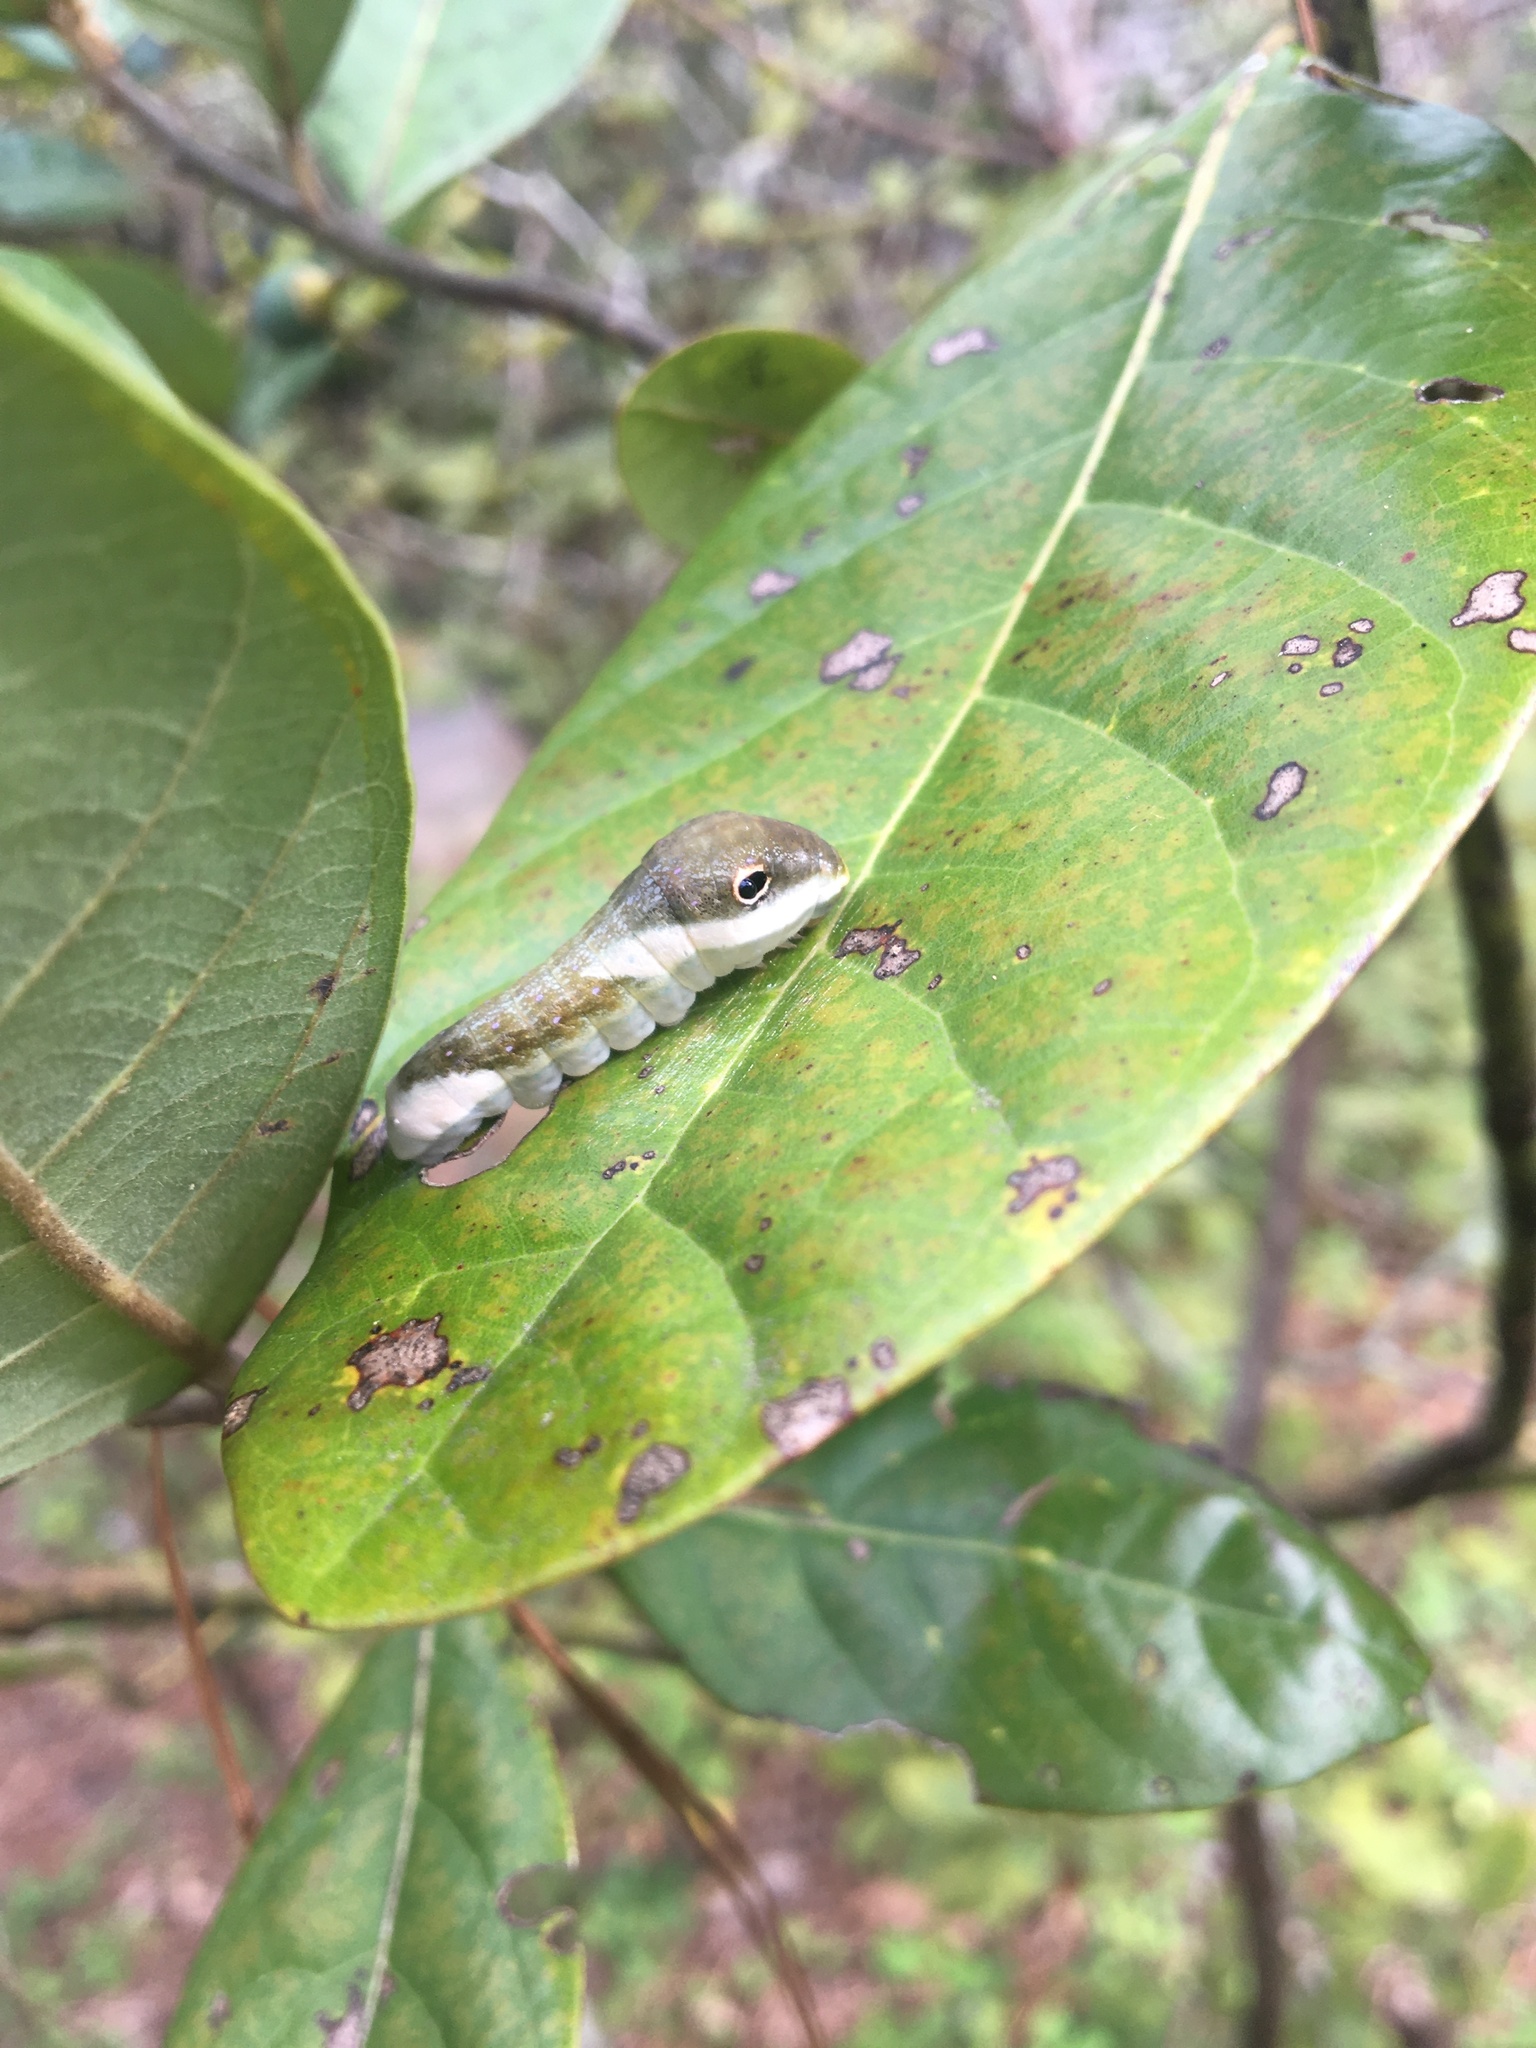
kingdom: Animalia
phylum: Arthropoda
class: Insecta
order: Lepidoptera
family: Papilionidae
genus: Papilio
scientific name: Papilio palamedes
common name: Palamedes swallowtail
